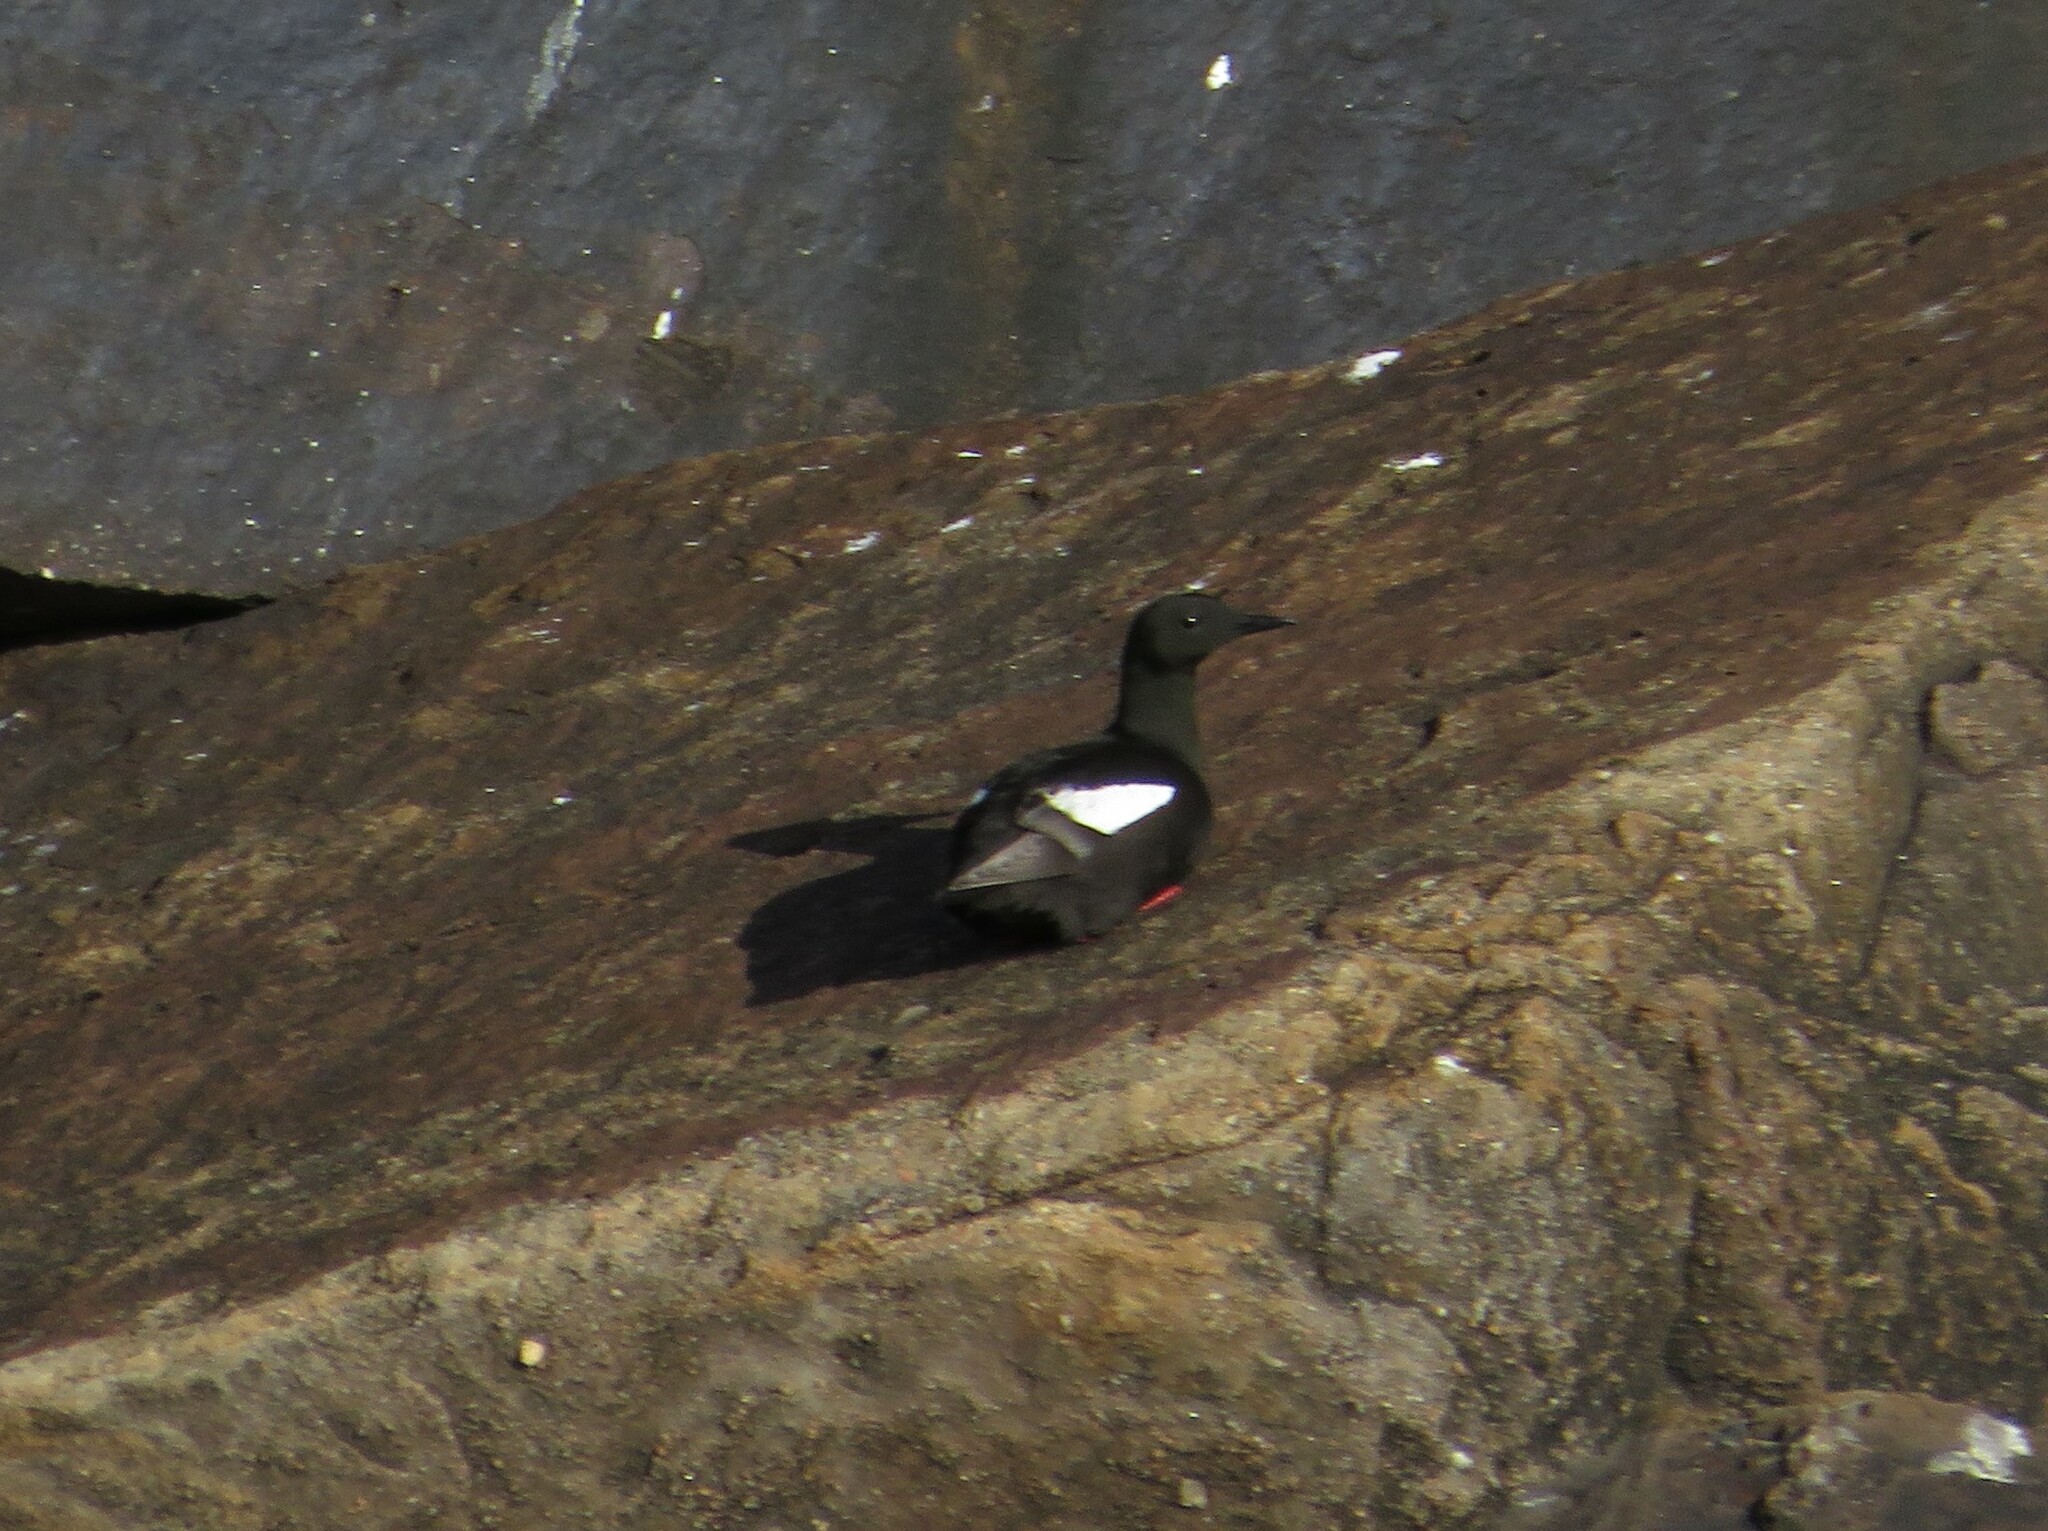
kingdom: Animalia
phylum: Chordata
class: Aves
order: Charadriiformes
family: Alcidae
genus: Cepphus
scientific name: Cepphus grylle
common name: Black guillemot
